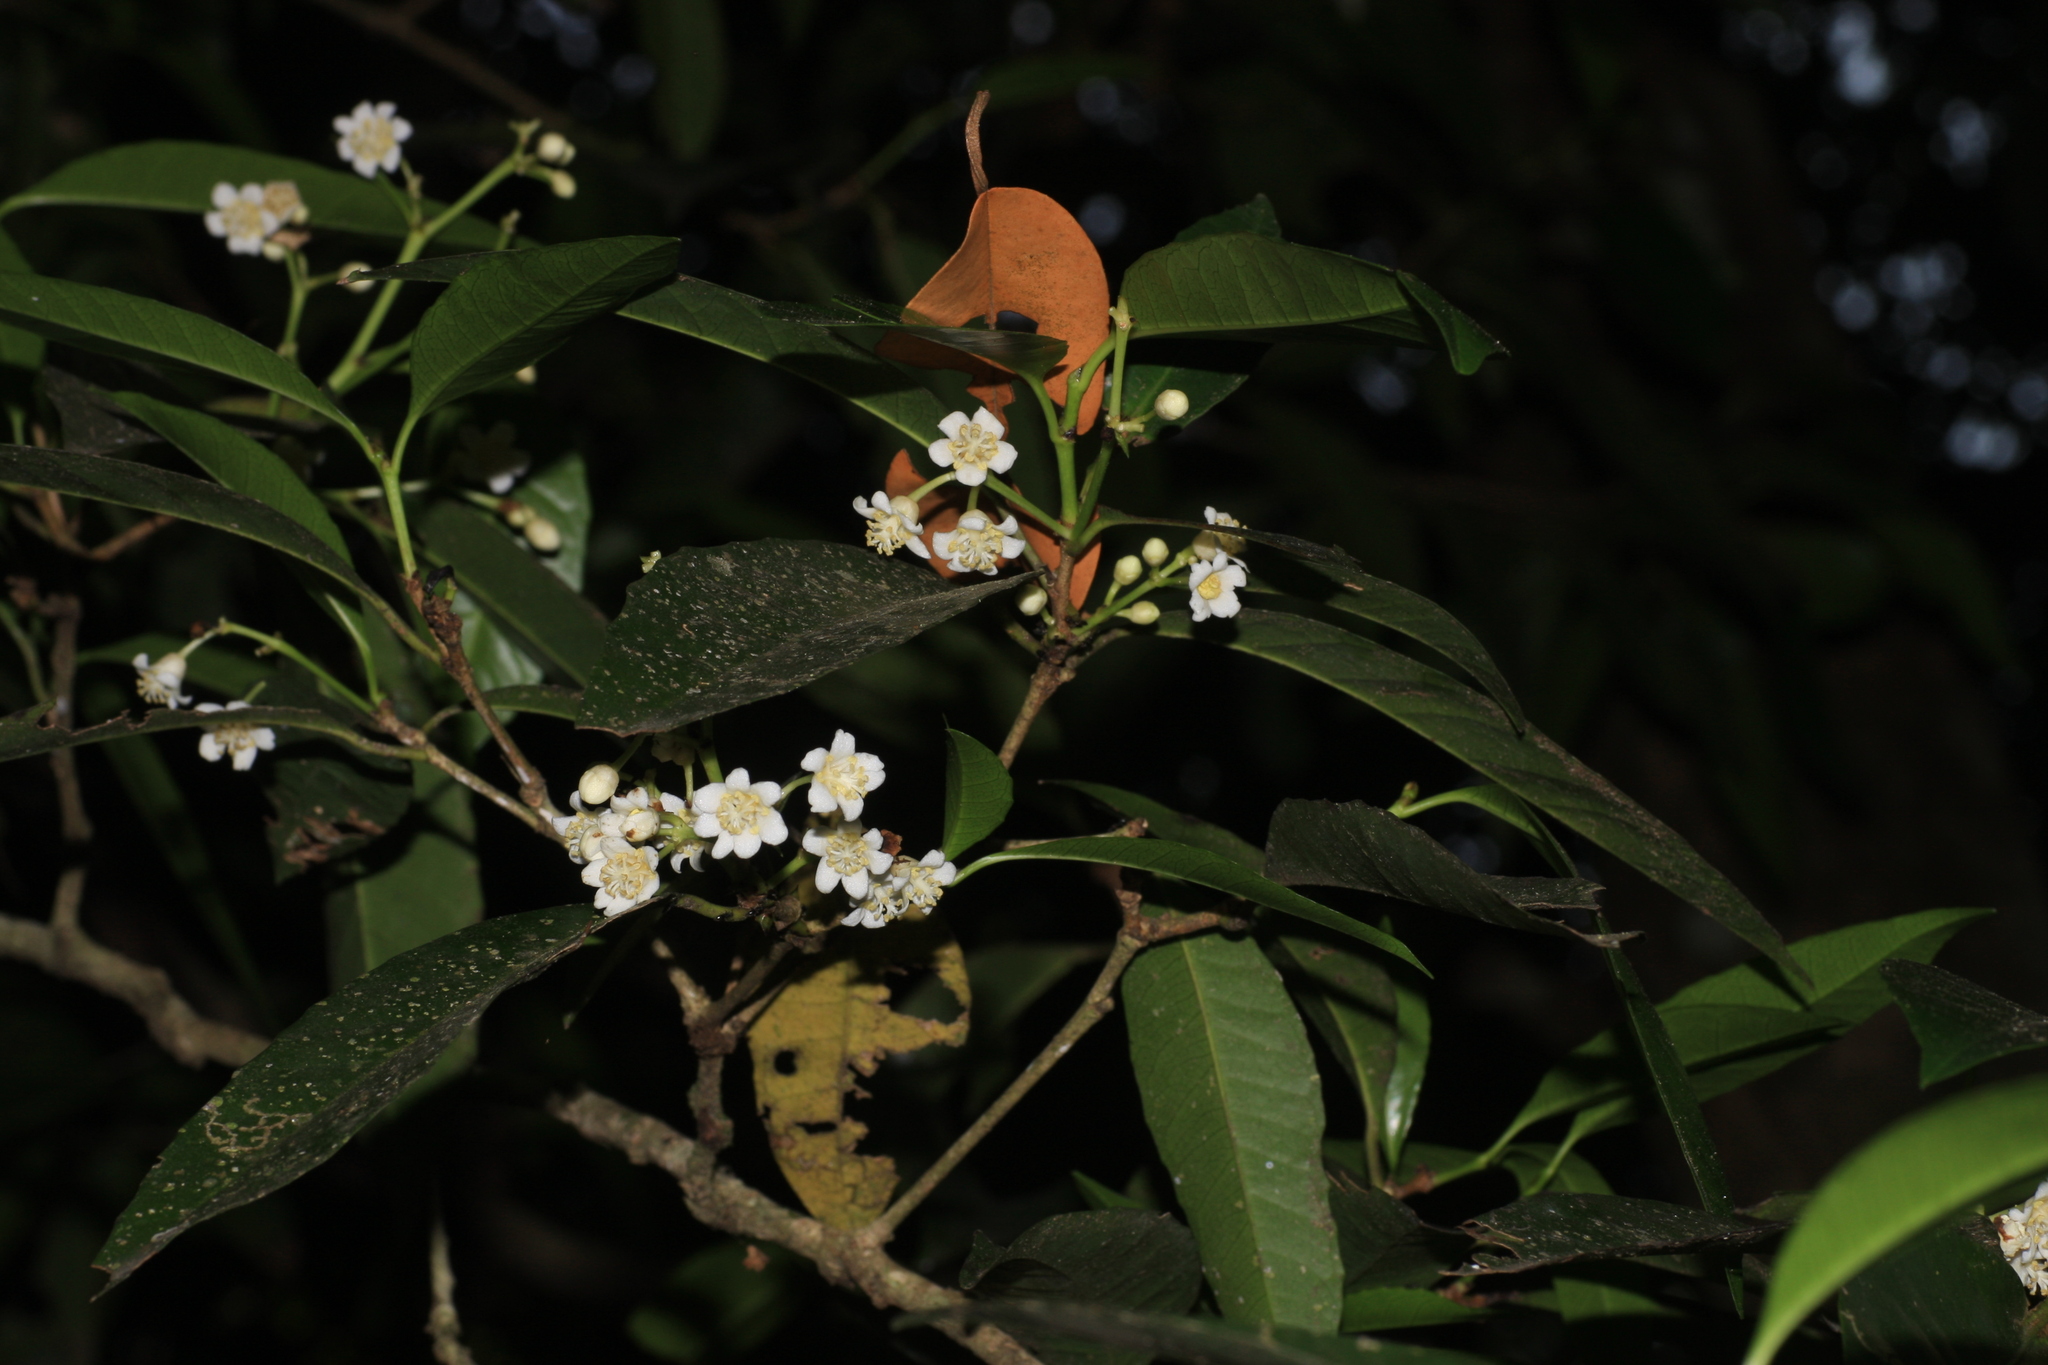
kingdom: Plantae
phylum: Tracheophyta
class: Magnoliopsida
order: Laurales
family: Lauraceae
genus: Beilschmiedia
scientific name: Beilschmiedia dalzellii
